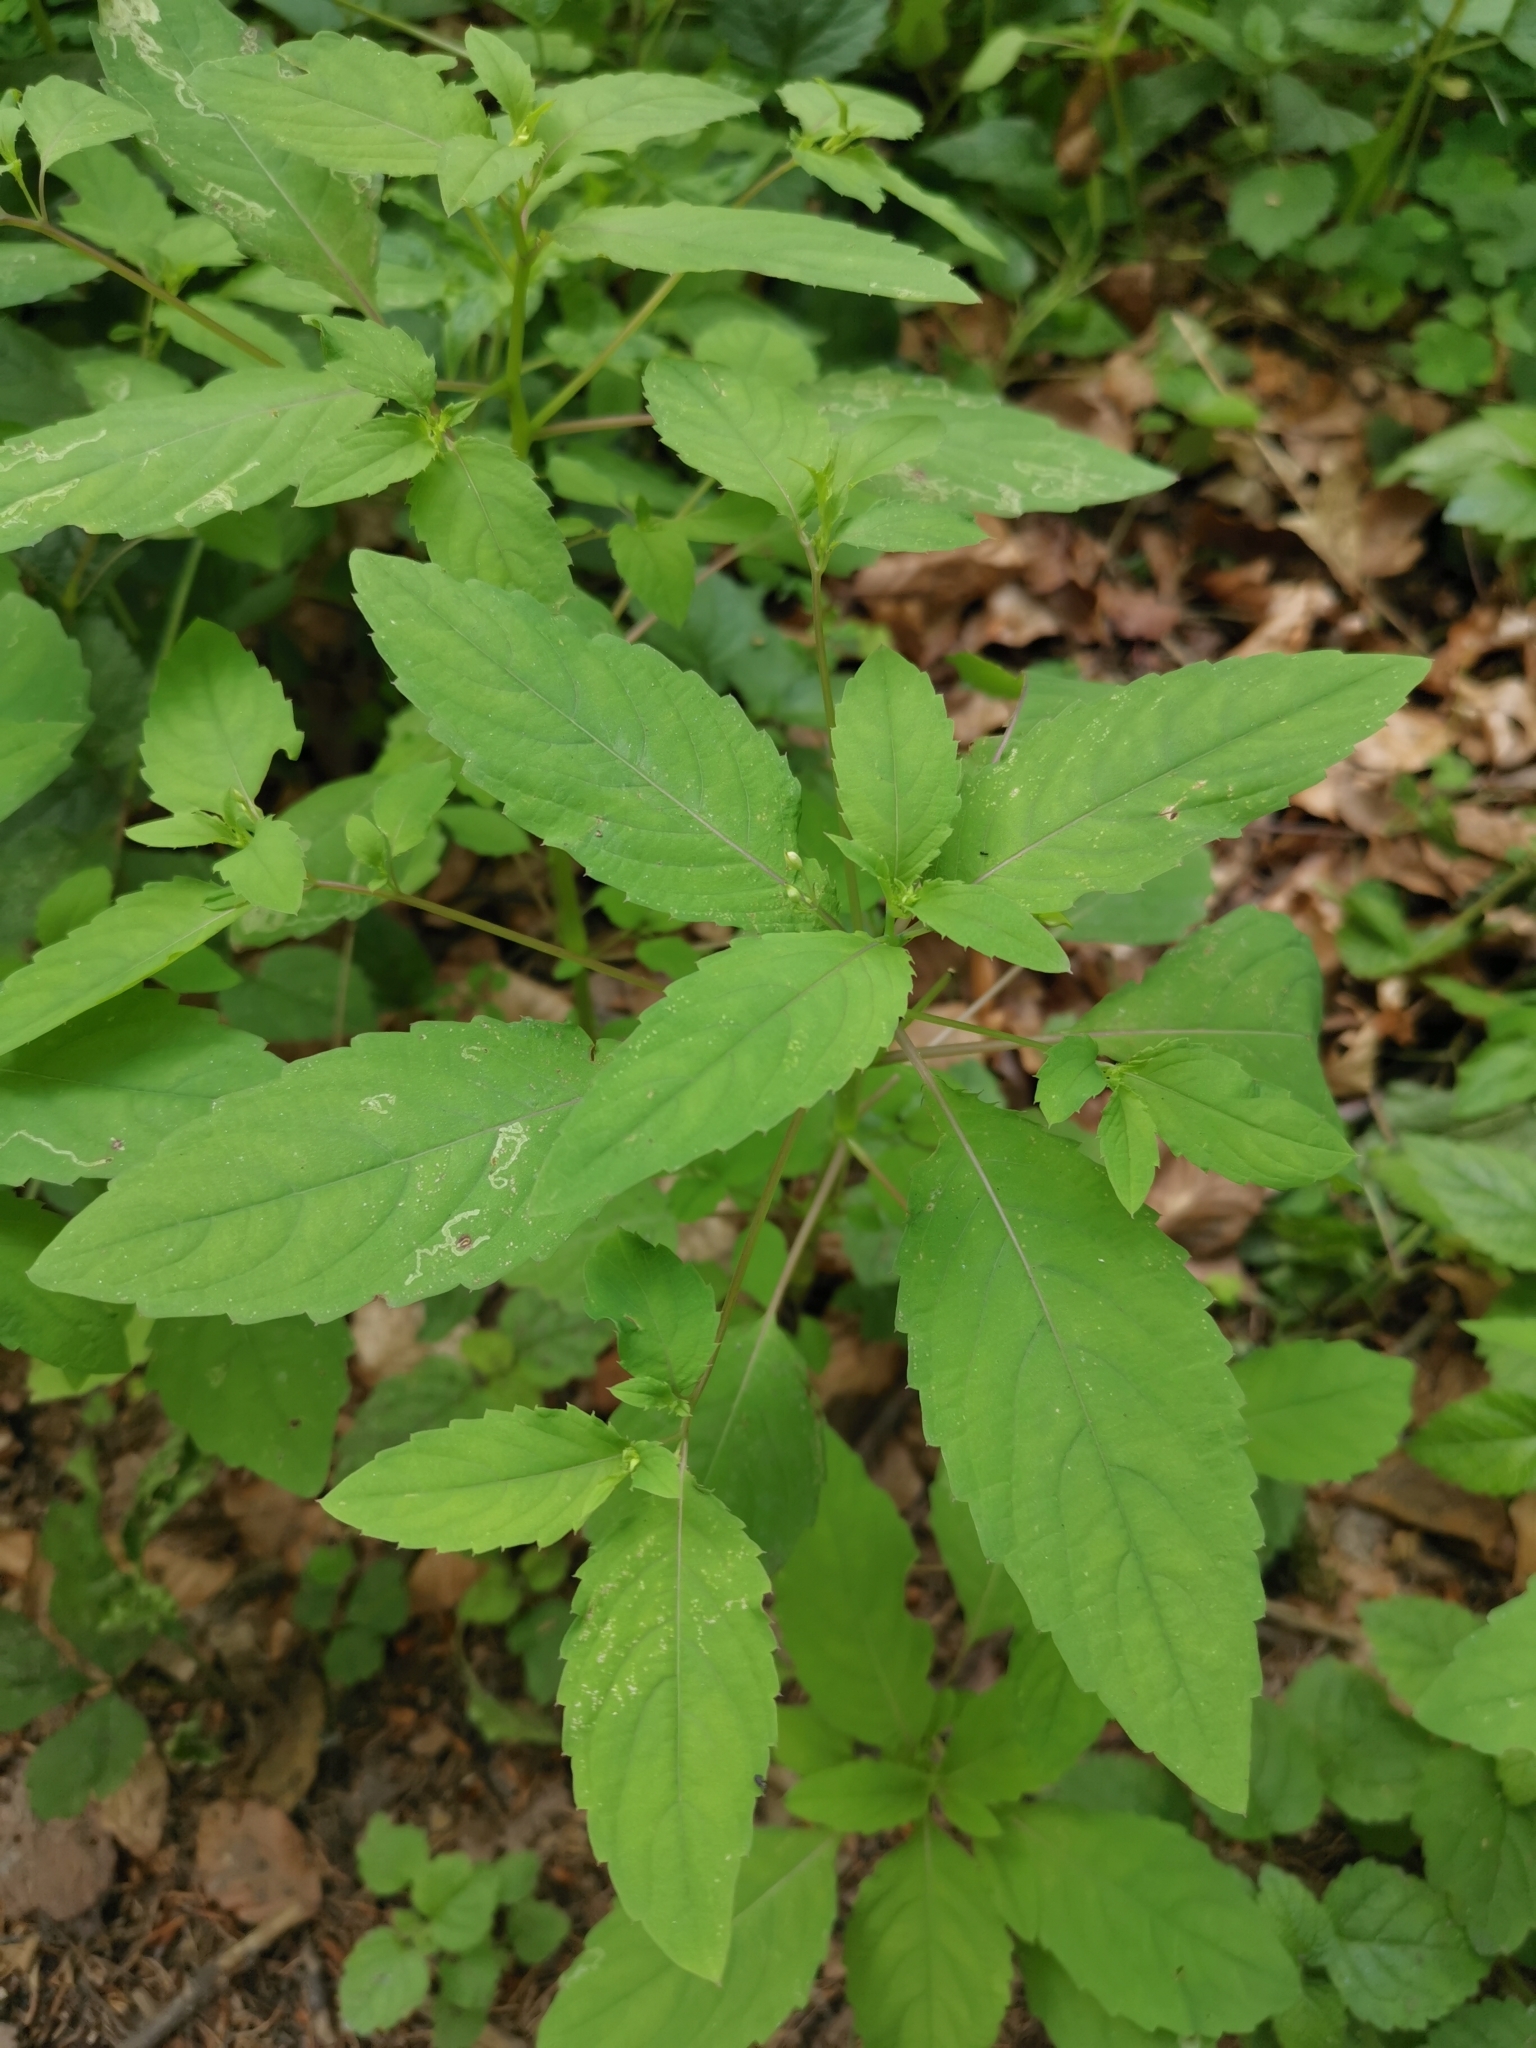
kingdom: Plantae
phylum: Tracheophyta
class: Magnoliopsida
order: Ericales
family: Balsaminaceae
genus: Impatiens
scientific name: Impatiens noli-tangere
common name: Touch-me-not balsam
